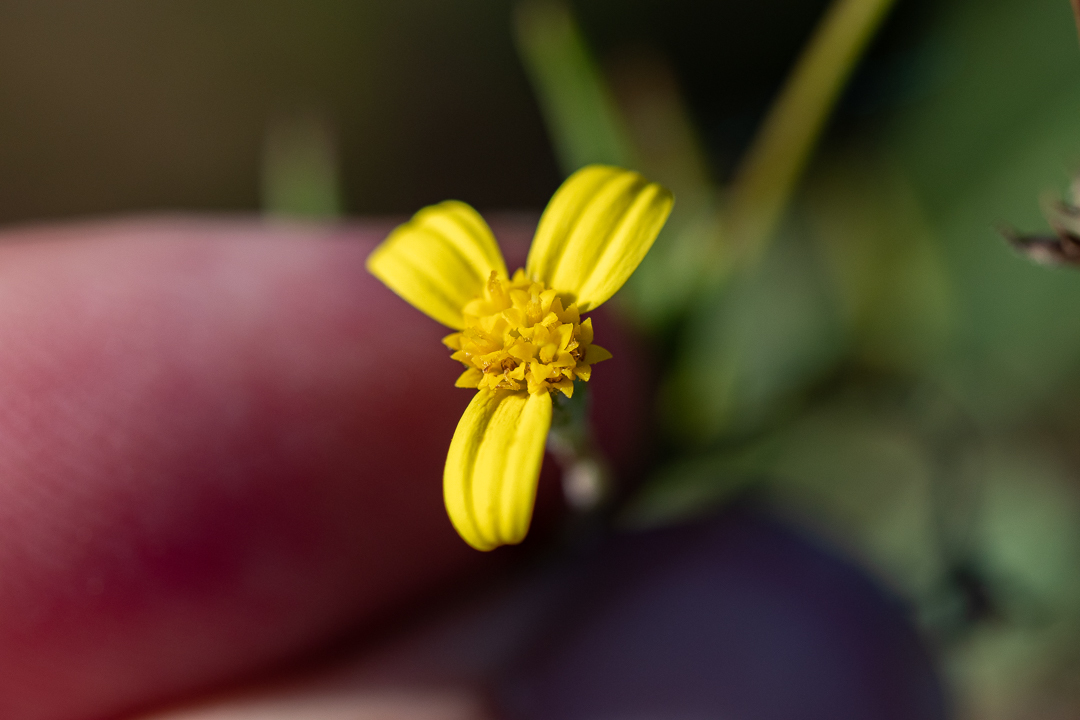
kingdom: Plantae
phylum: Tracheophyta
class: Magnoliopsida
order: Asterales
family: Asteraceae
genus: Osteospermum
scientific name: Osteospermum ciliatum
